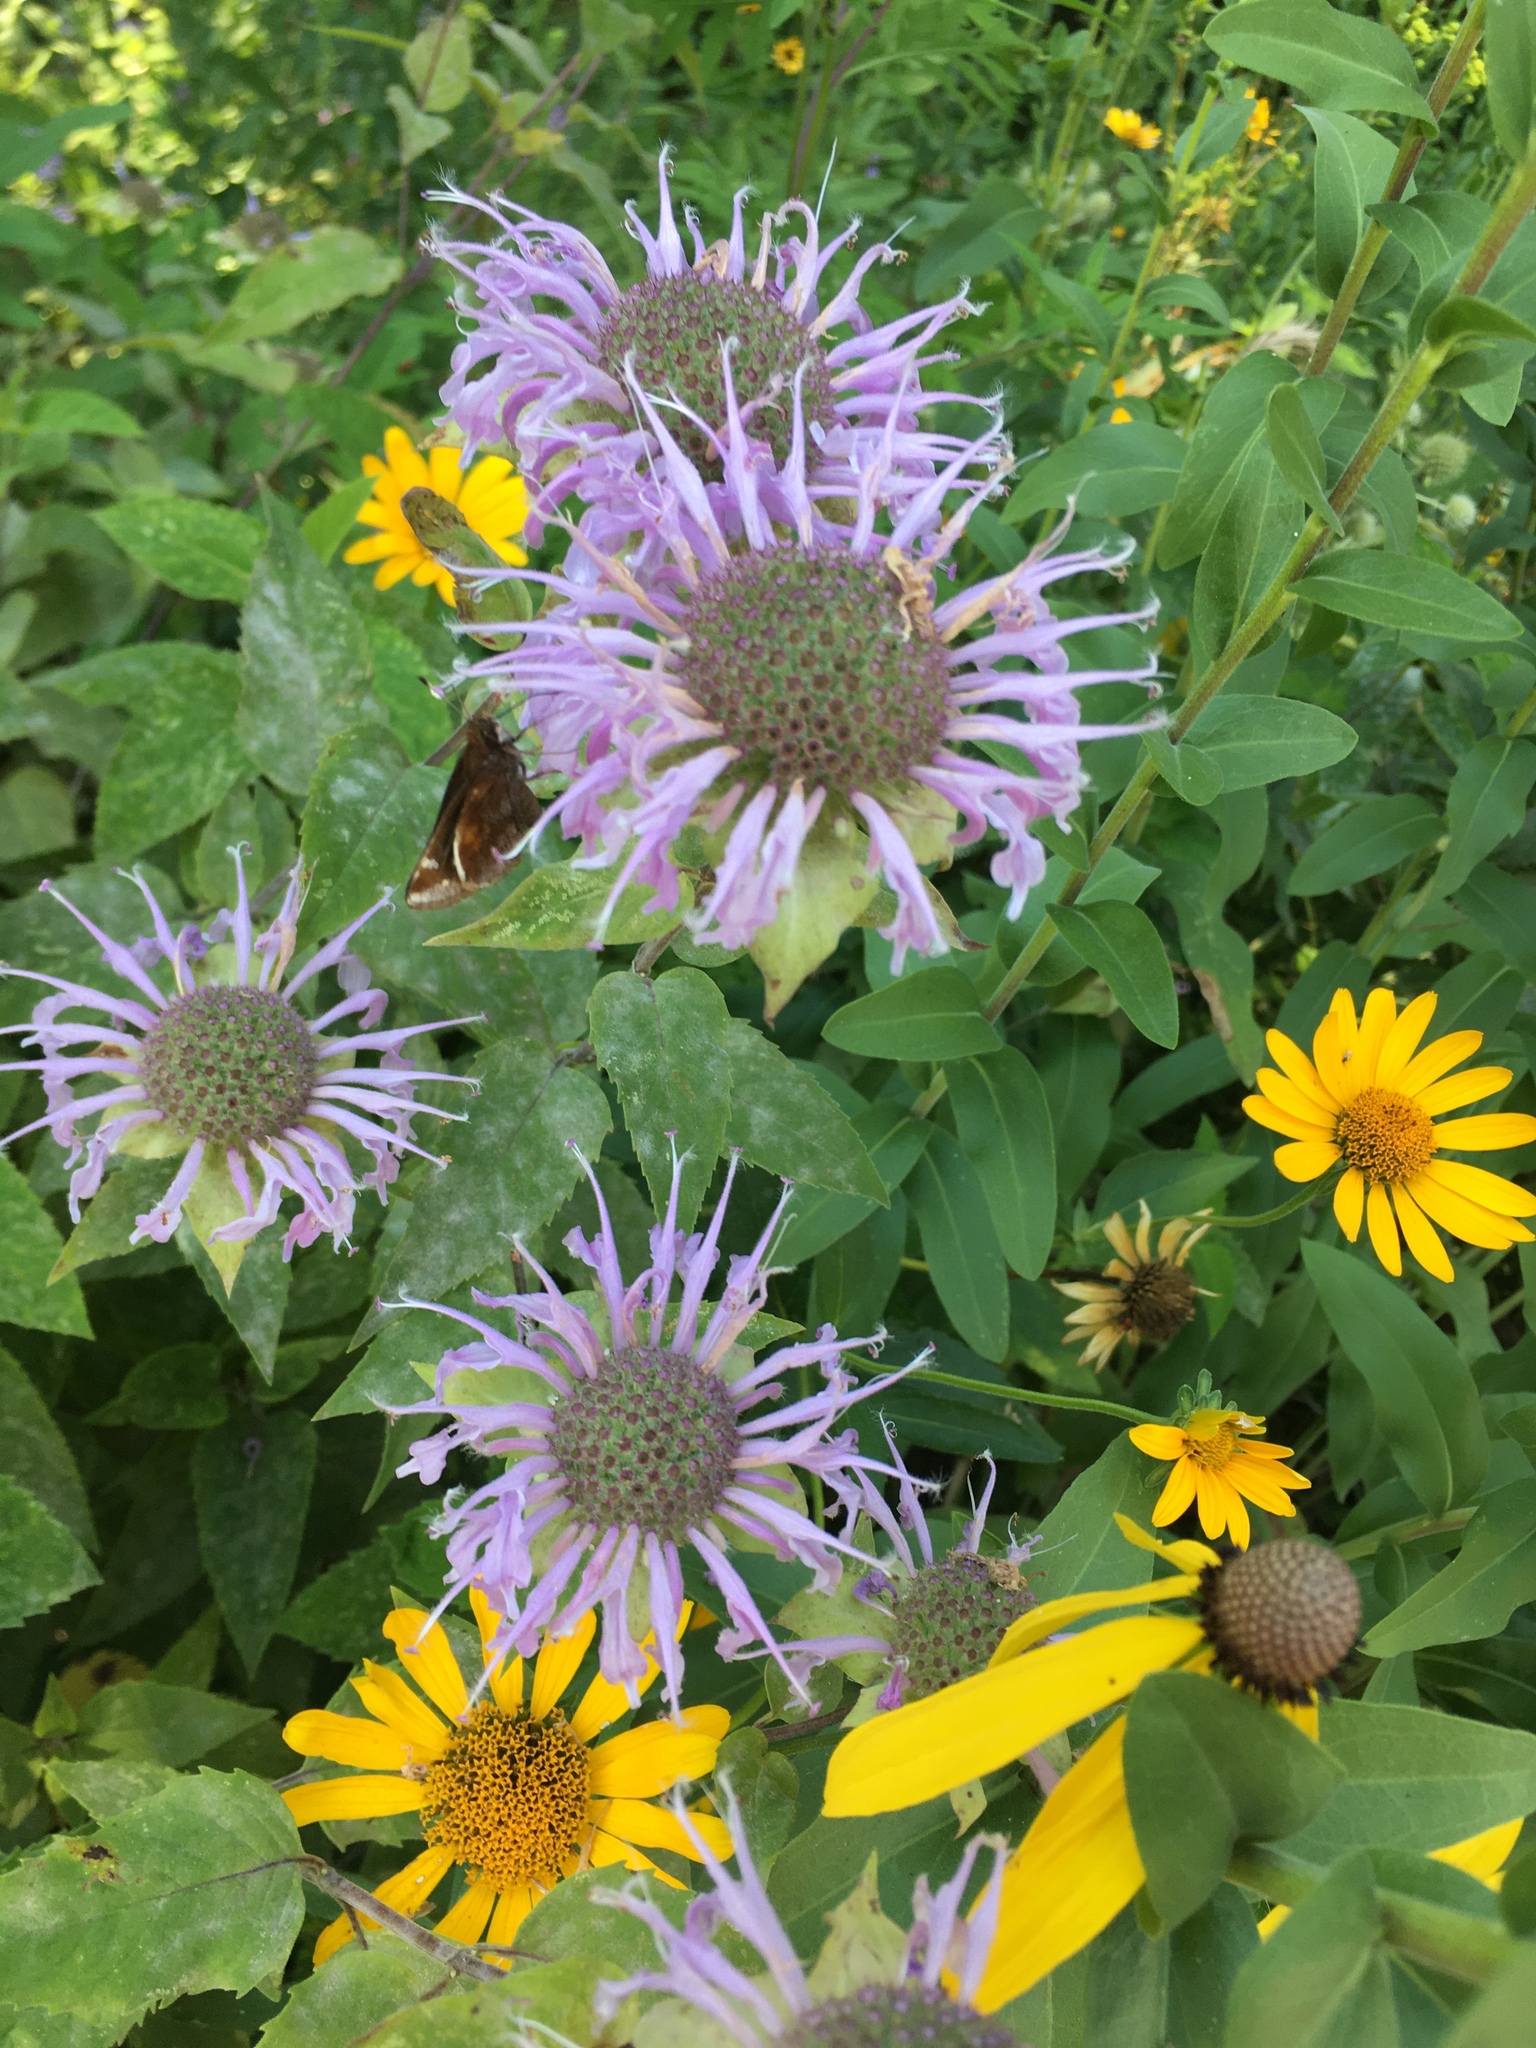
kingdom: Animalia
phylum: Arthropoda
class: Insecta
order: Lepidoptera
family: Hesperiidae
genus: Lon
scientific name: Lon zabulon
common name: Zabulon skipper
